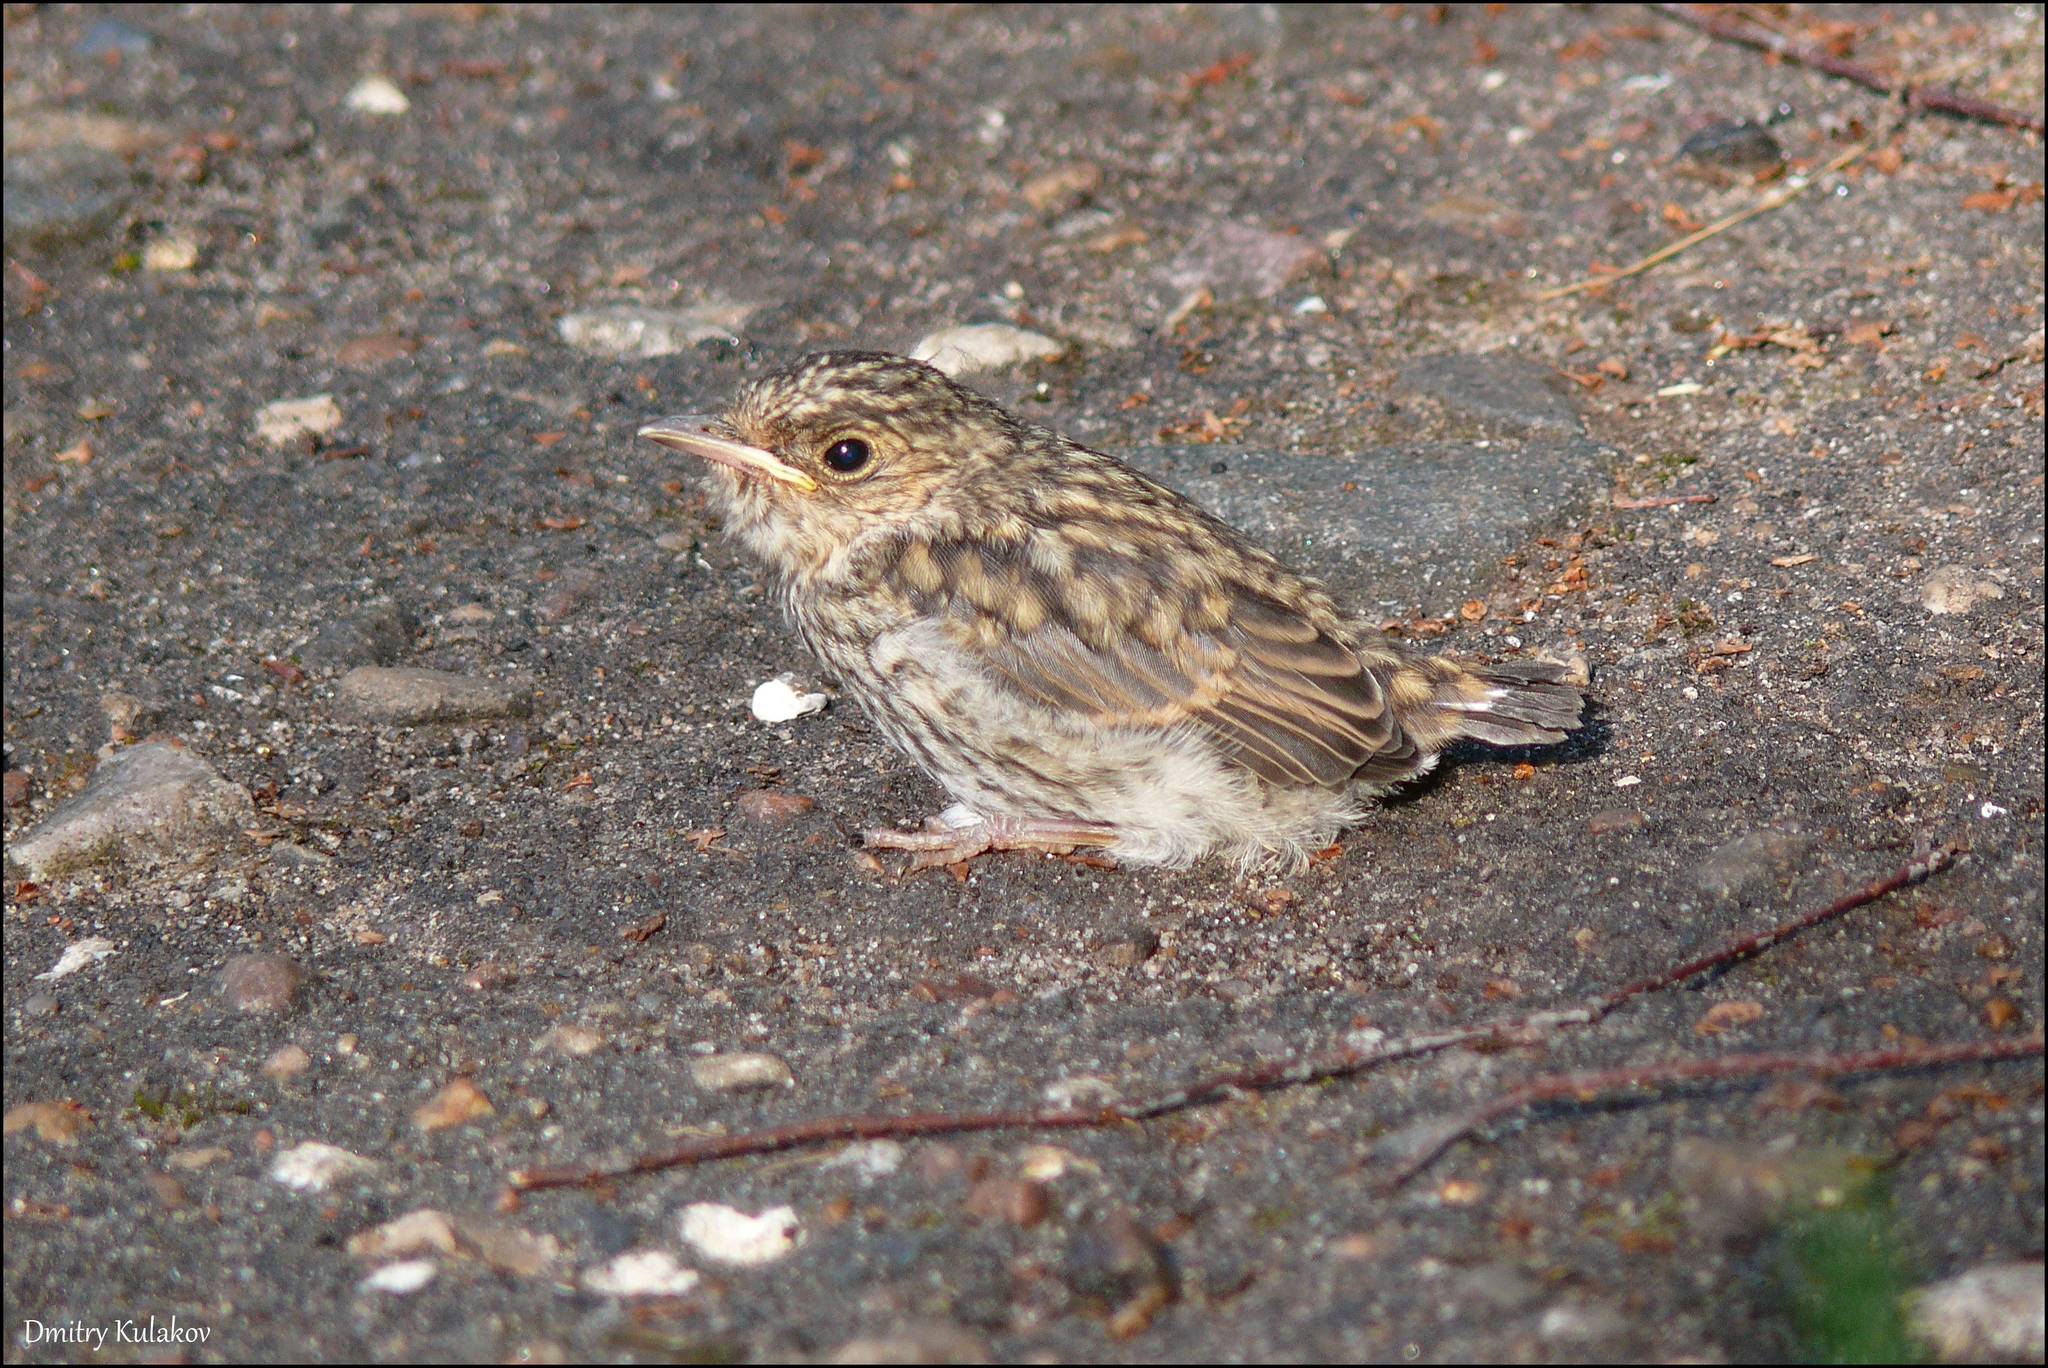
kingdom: Animalia
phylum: Chordata
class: Aves
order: Passeriformes
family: Muscicapidae
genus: Muscicapa
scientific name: Muscicapa striata
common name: Spotted flycatcher
